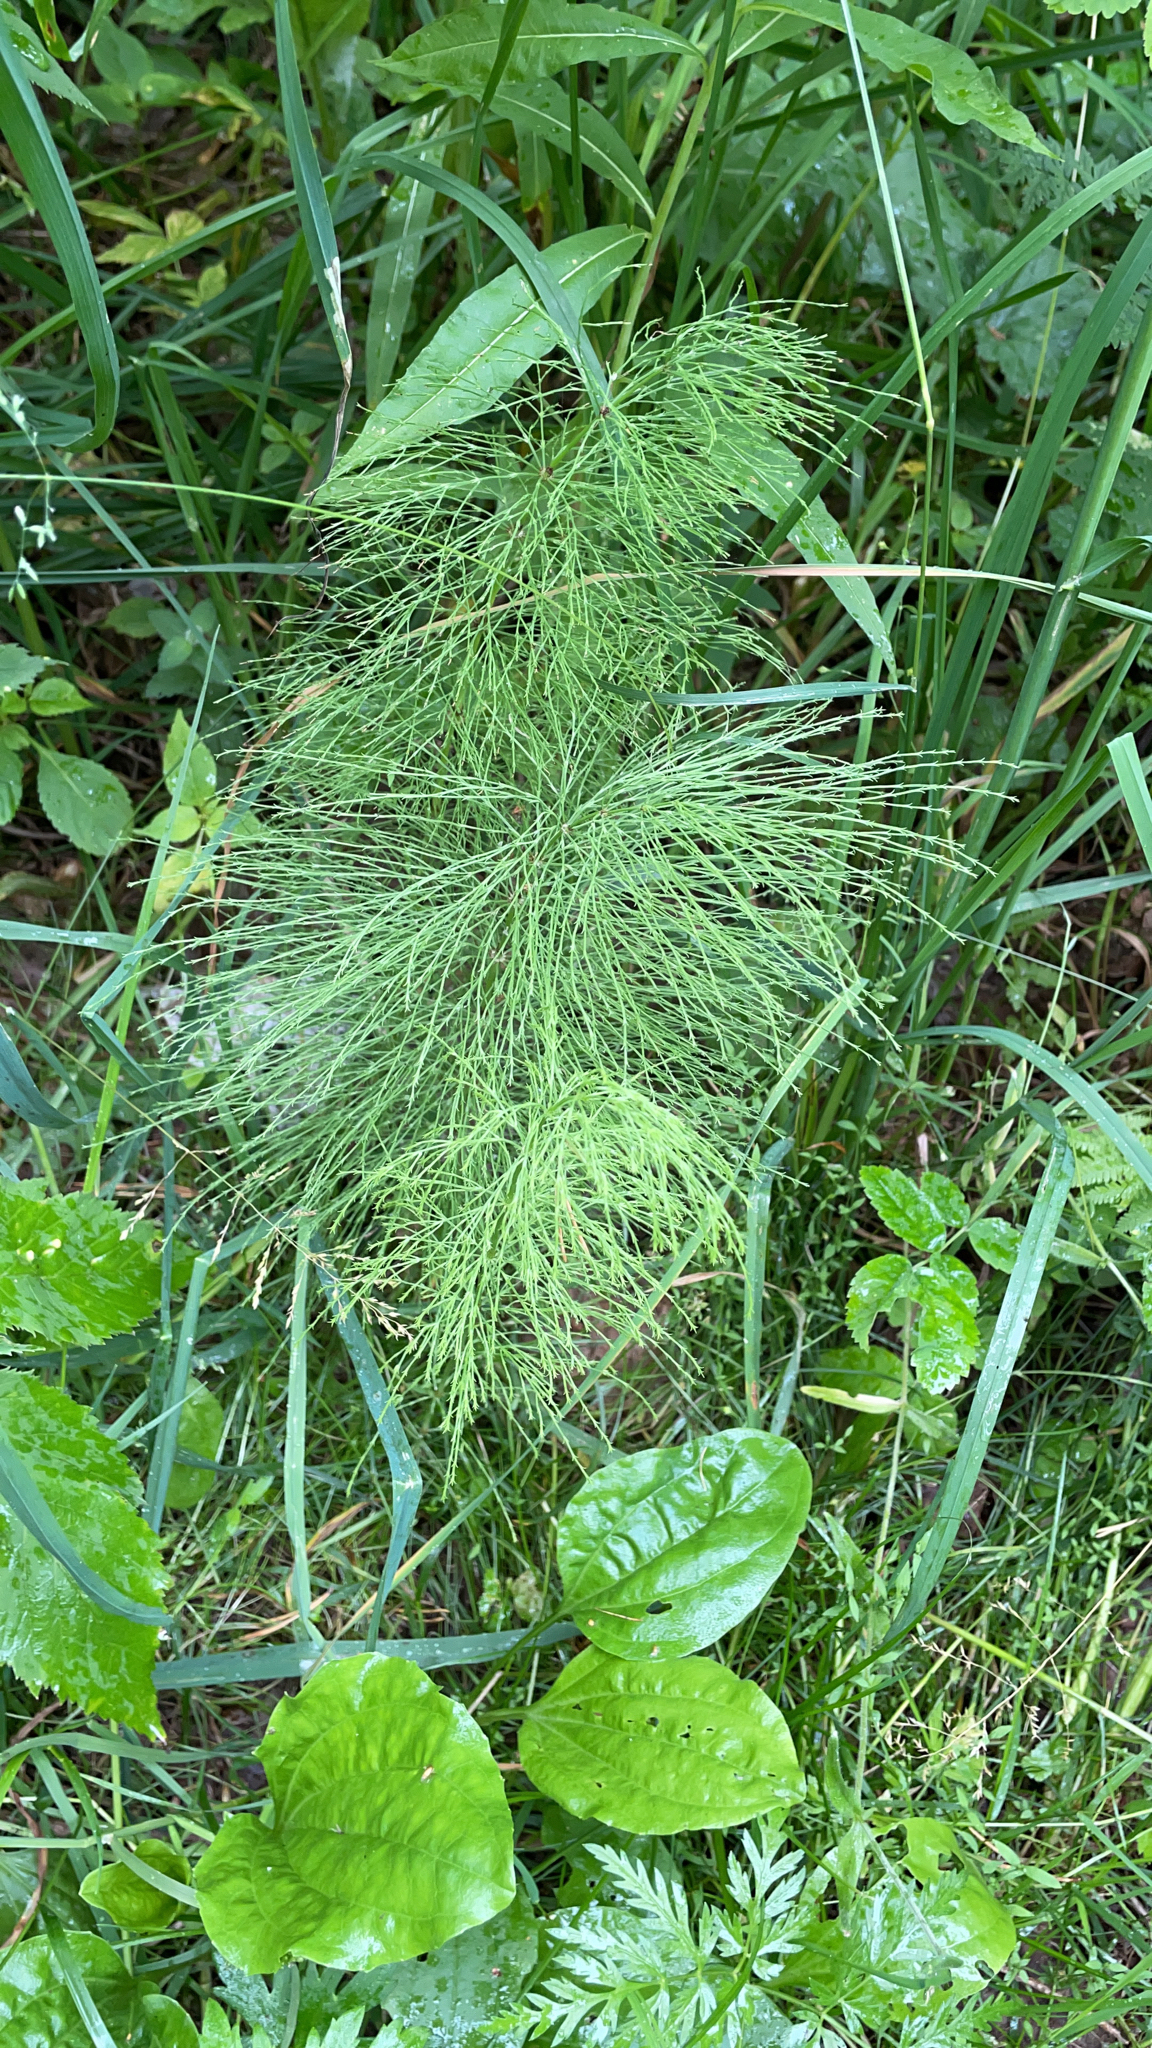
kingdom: Plantae
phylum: Tracheophyta
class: Polypodiopsida
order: Equisetales
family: Equisetaceae
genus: Equisetum
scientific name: Equisetum sylvaticum
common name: Wood horsetail
